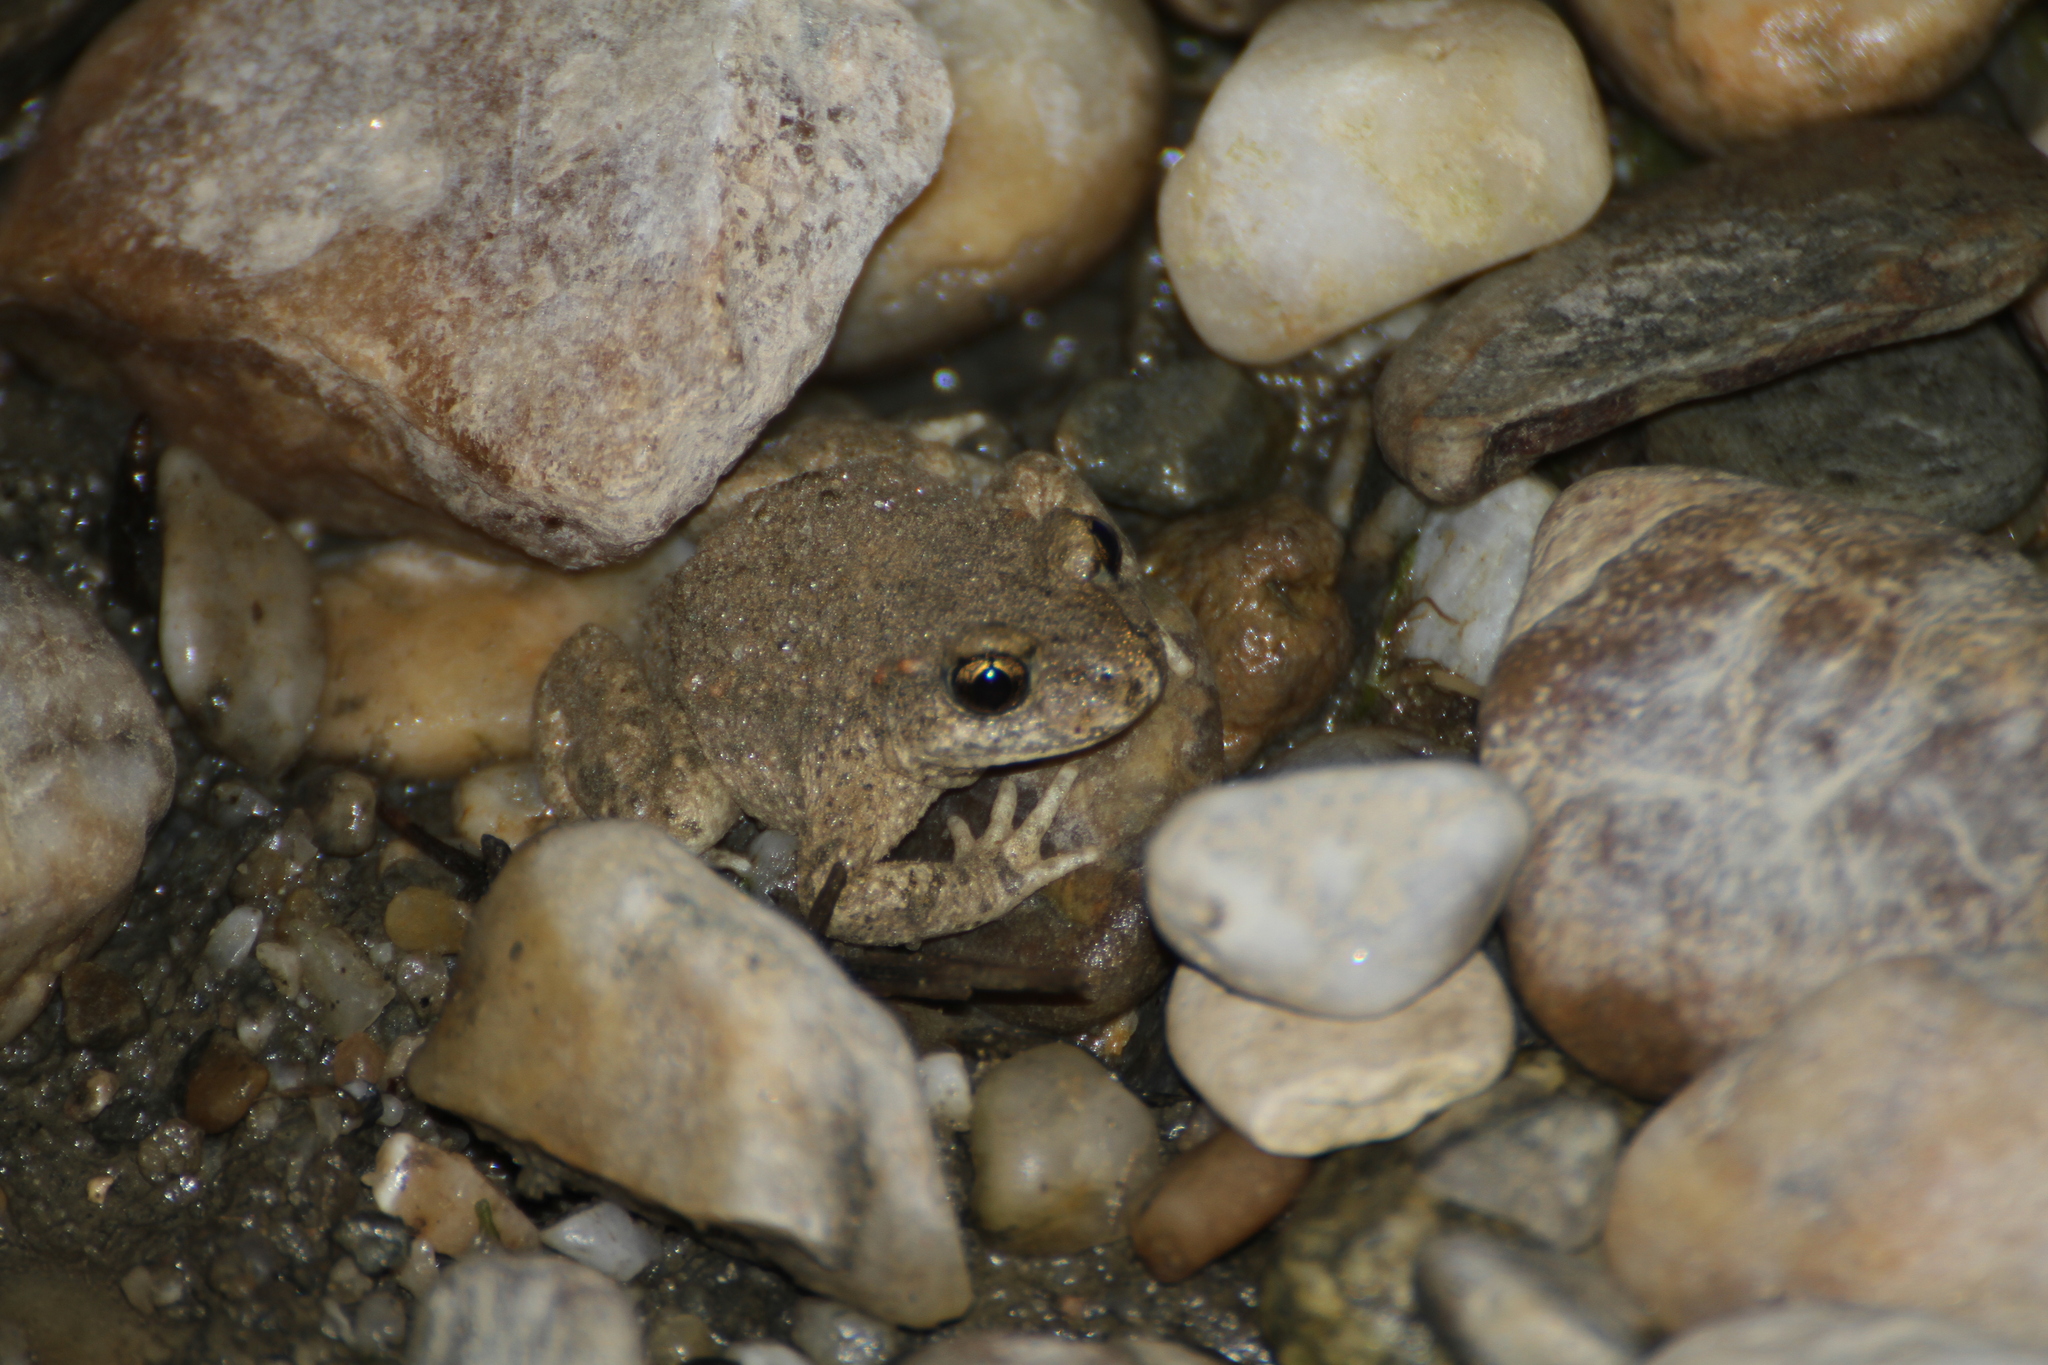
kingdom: Animalia
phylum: Chordata
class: Amphibia
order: Anura
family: Alytidae
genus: Alytes
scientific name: Alytes obstetricans
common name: Midwife toad
